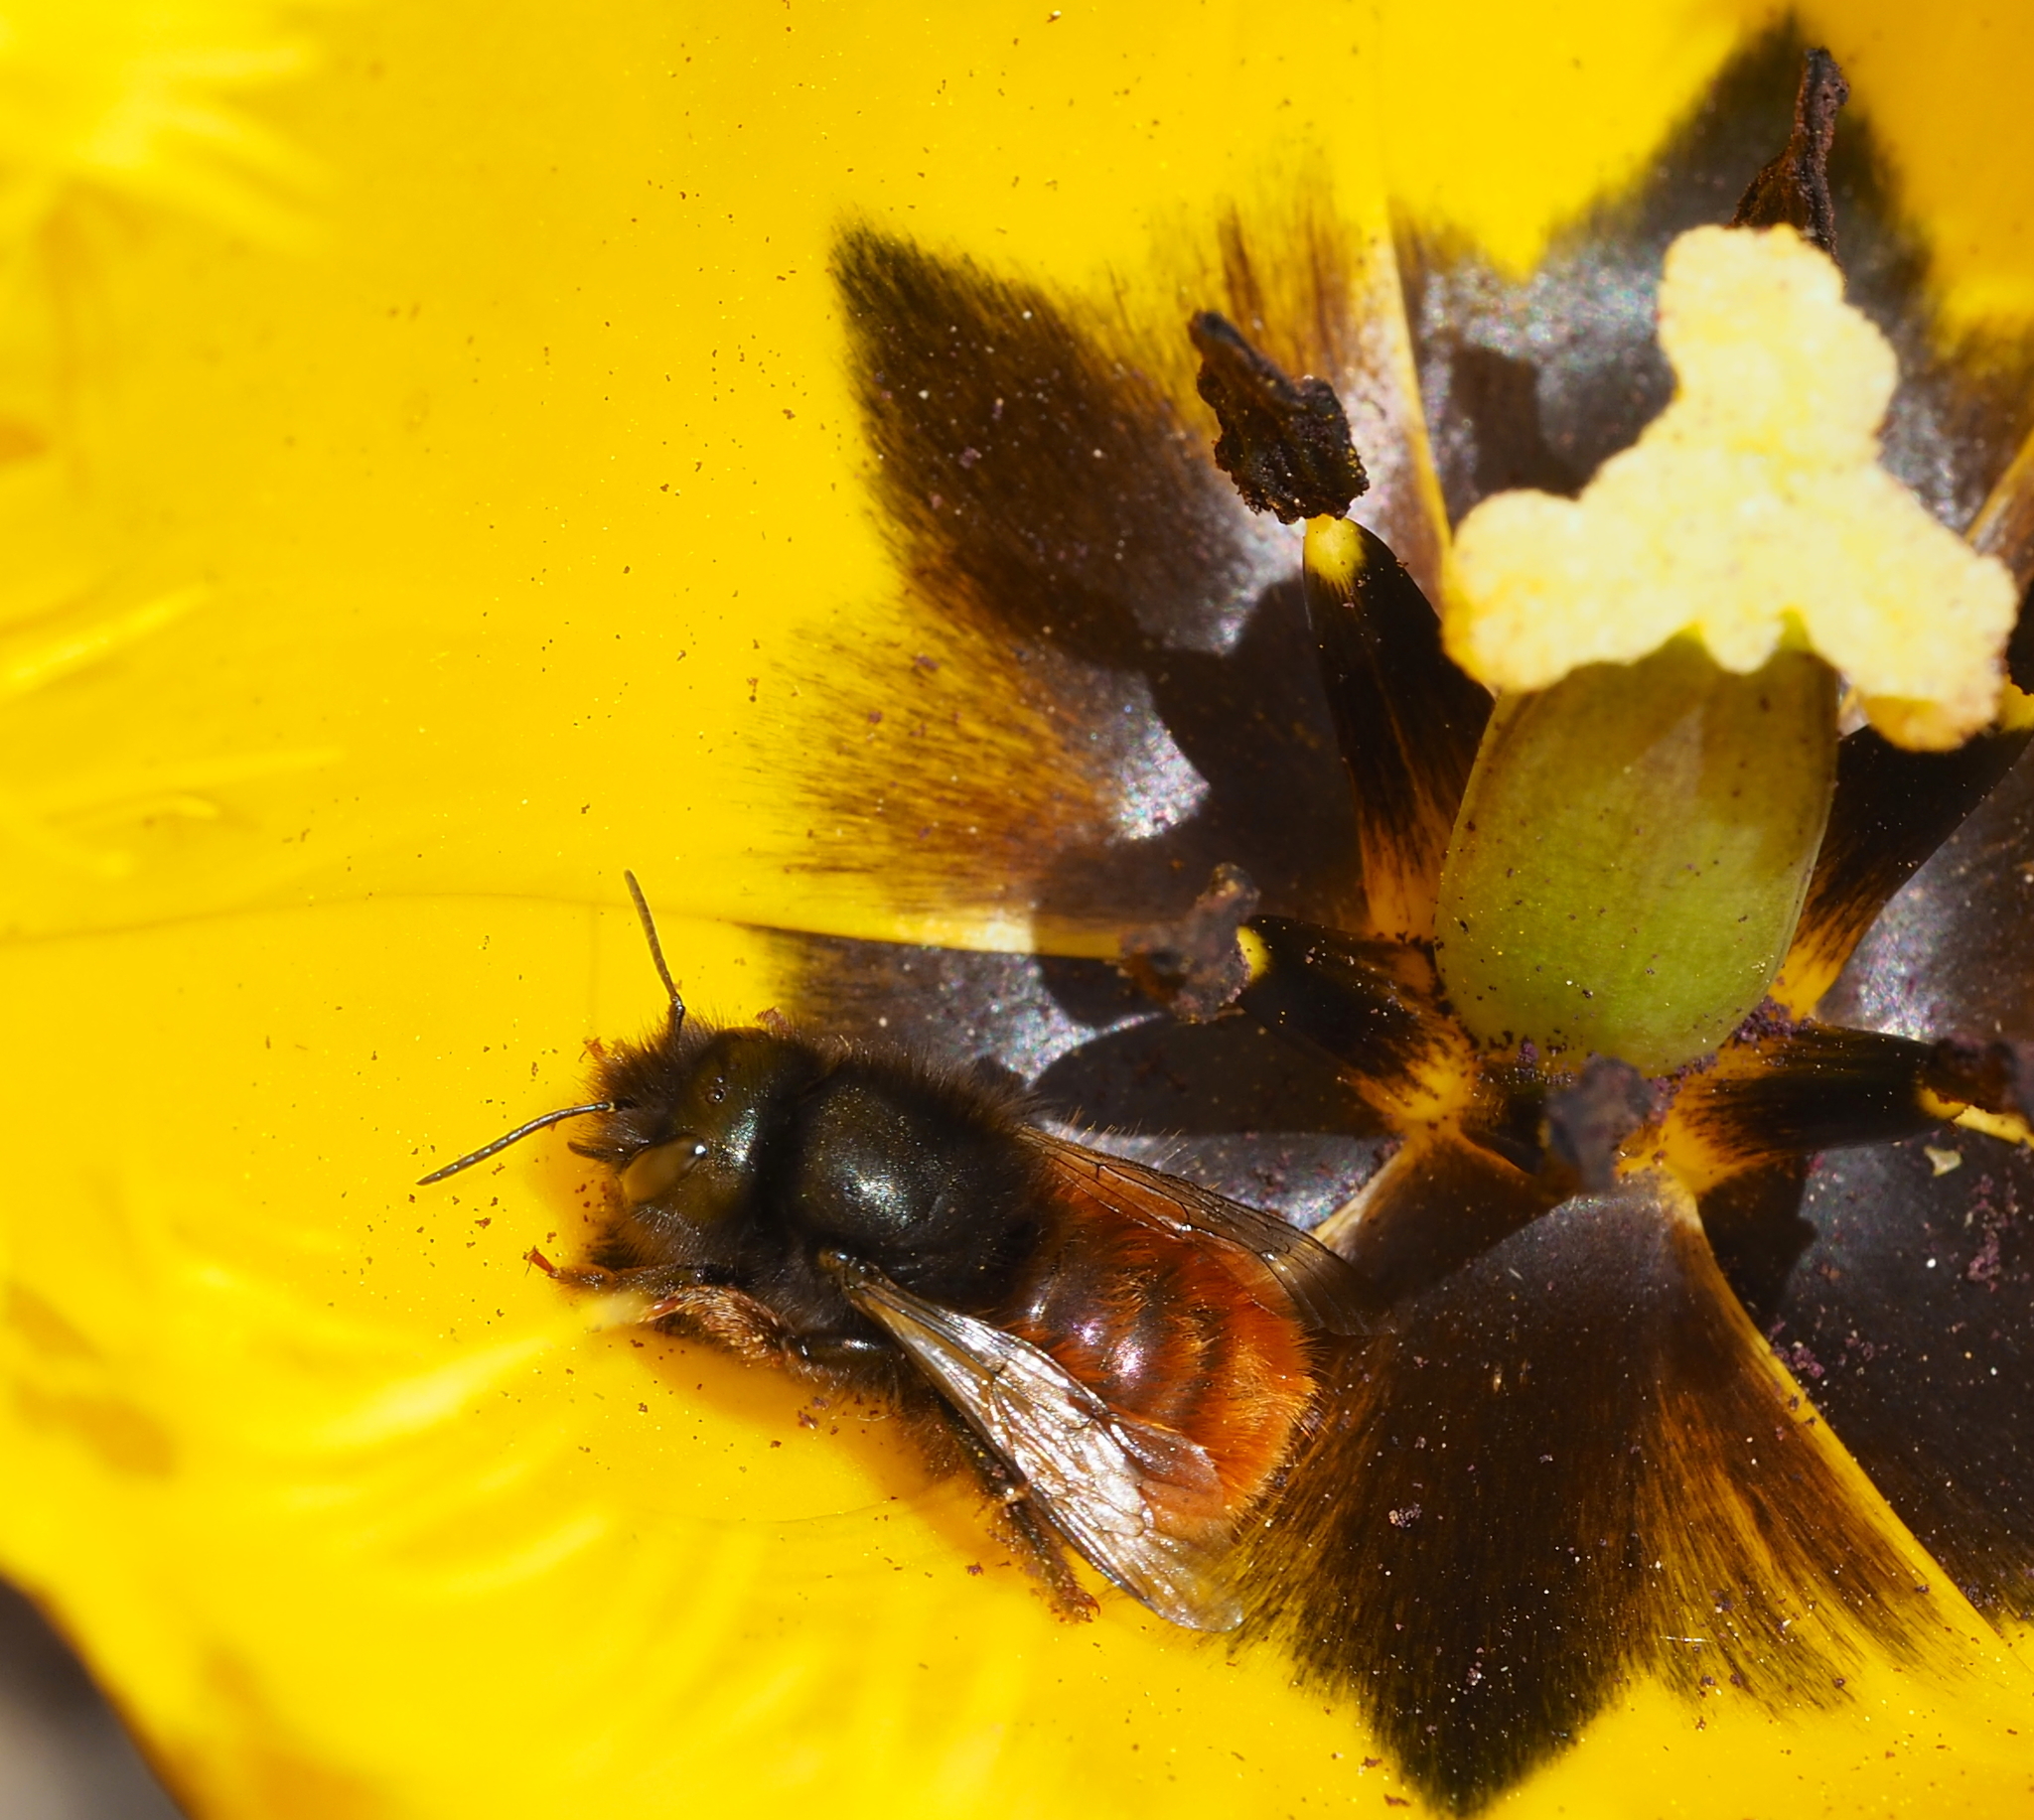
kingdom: Animalia
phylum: Arthropoda
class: Insecta
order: Hymenoptera
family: Megachilidae
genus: Osmia
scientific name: Osmia cornuta
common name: Mason bee
